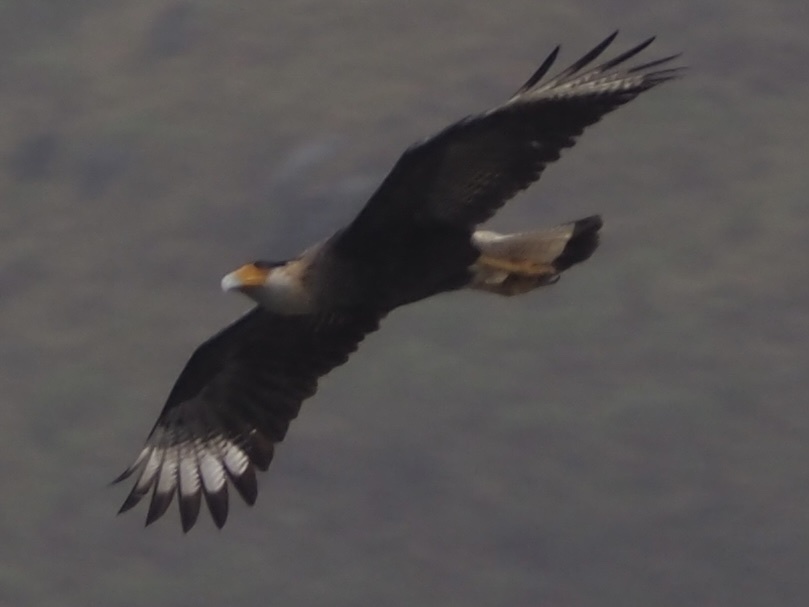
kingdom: Animalia
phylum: Chordata
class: Aves
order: Falconiformes
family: Falconidae
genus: Caracara
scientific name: Caracara plancus
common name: Southern caracara
